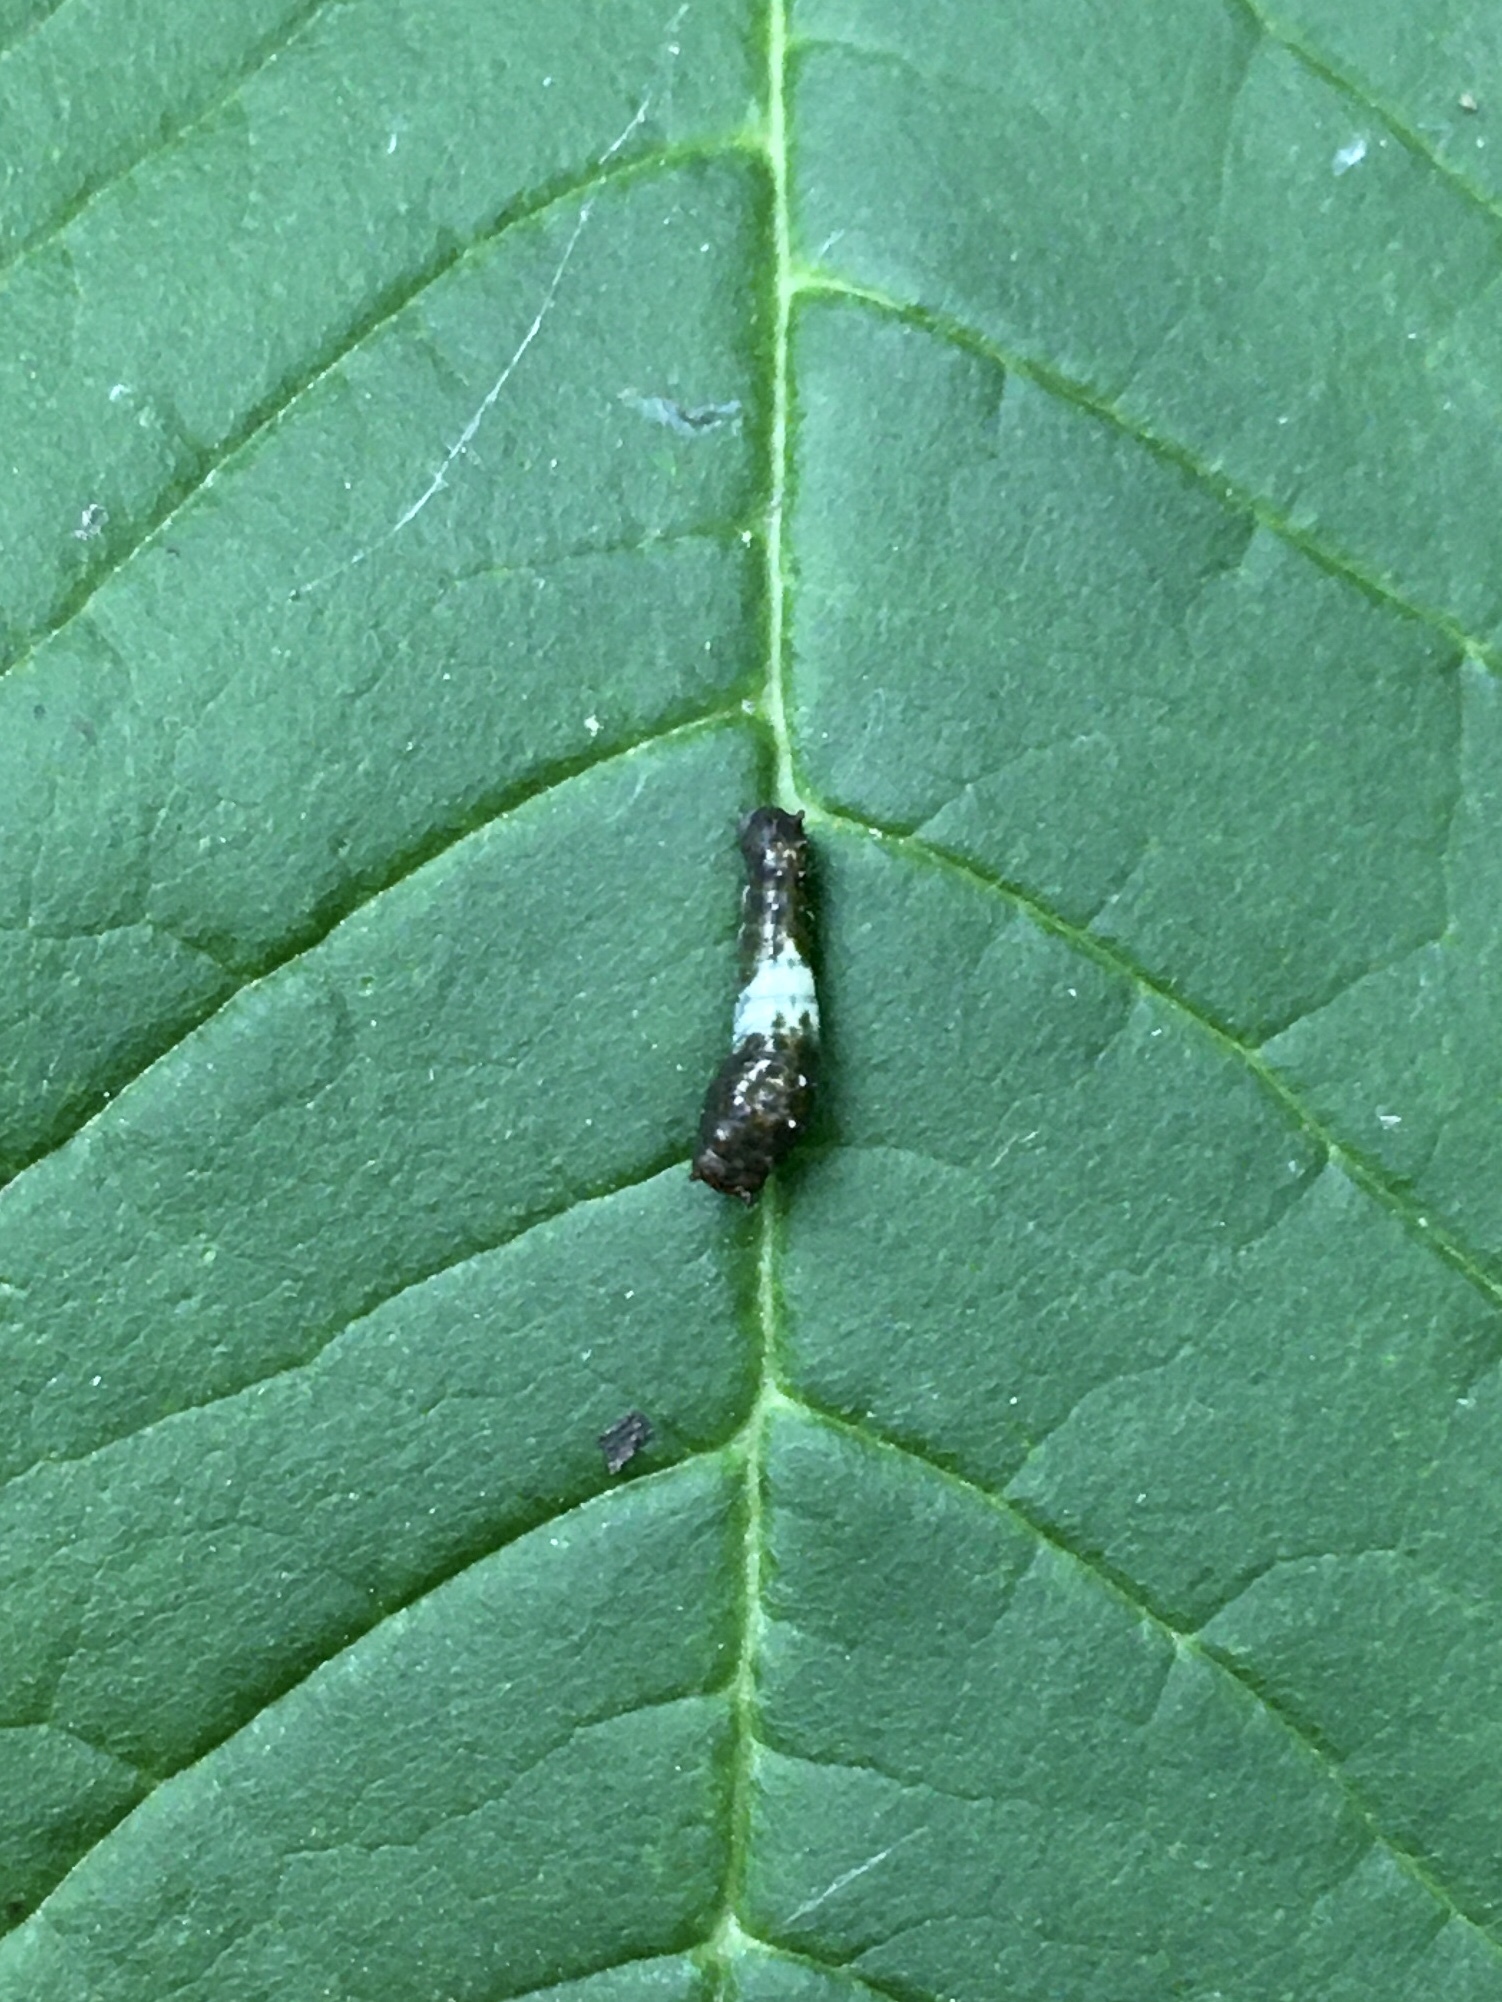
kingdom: Animalia
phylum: Arthropoda
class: Insecta
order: Lepidoptera
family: Papilionidae
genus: Papilio
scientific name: Papilio glaucus
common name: Tiger swallowtail
